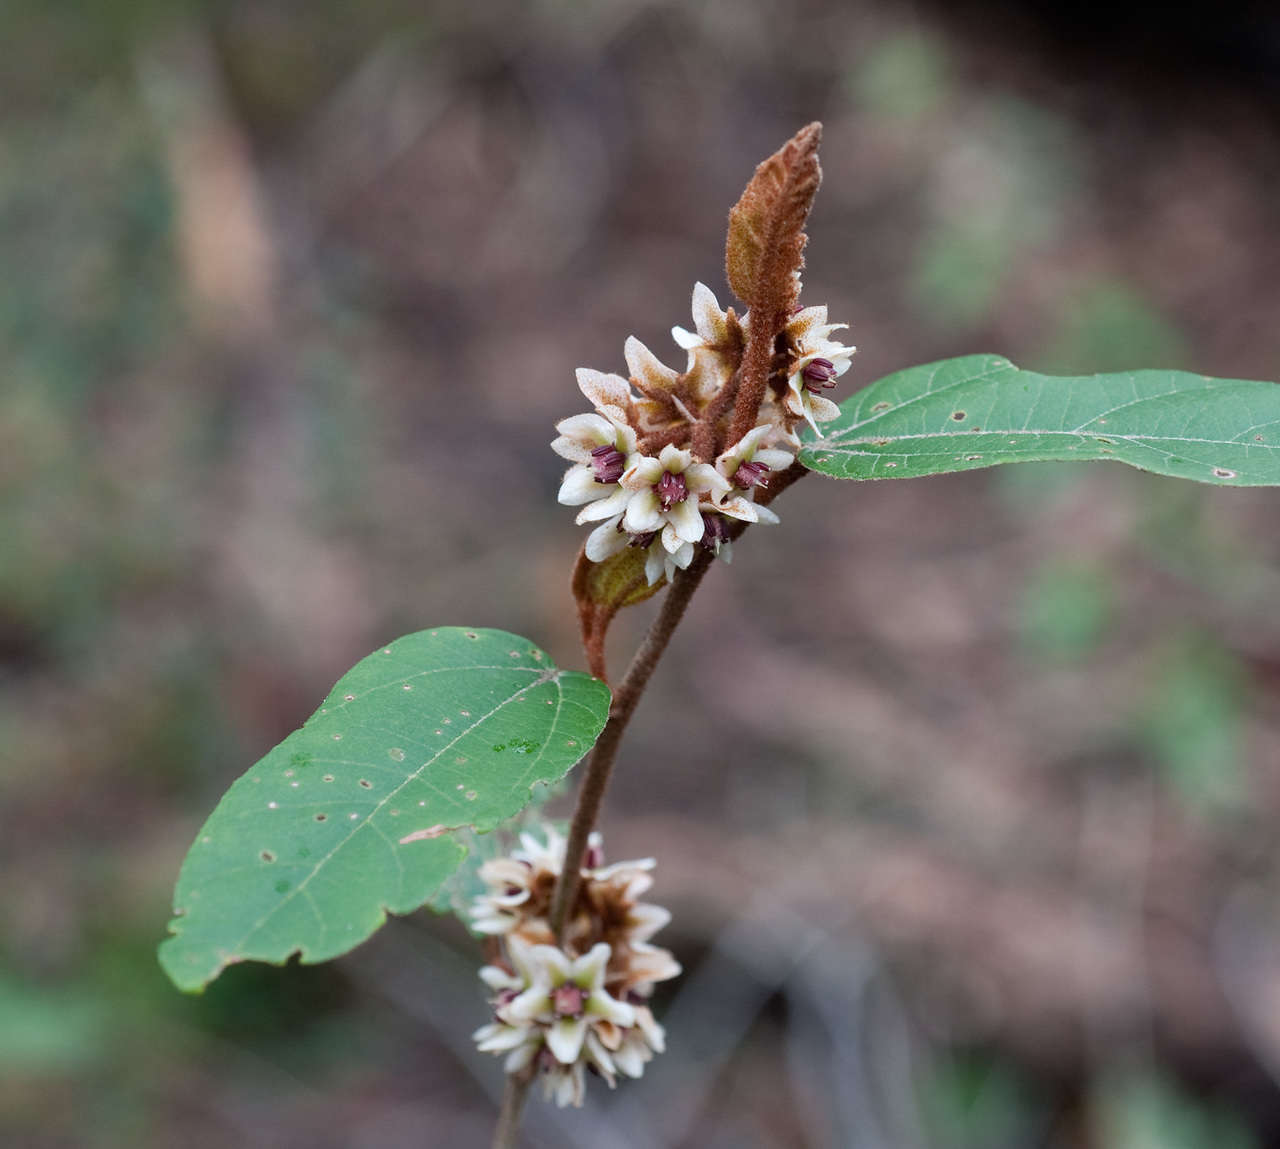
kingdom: Plantae
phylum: Tracheophyta
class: Magnoliopsida
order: Malvales
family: Malvaceae
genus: Lasiopetalum
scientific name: Lasiopetalum macrophyllum
